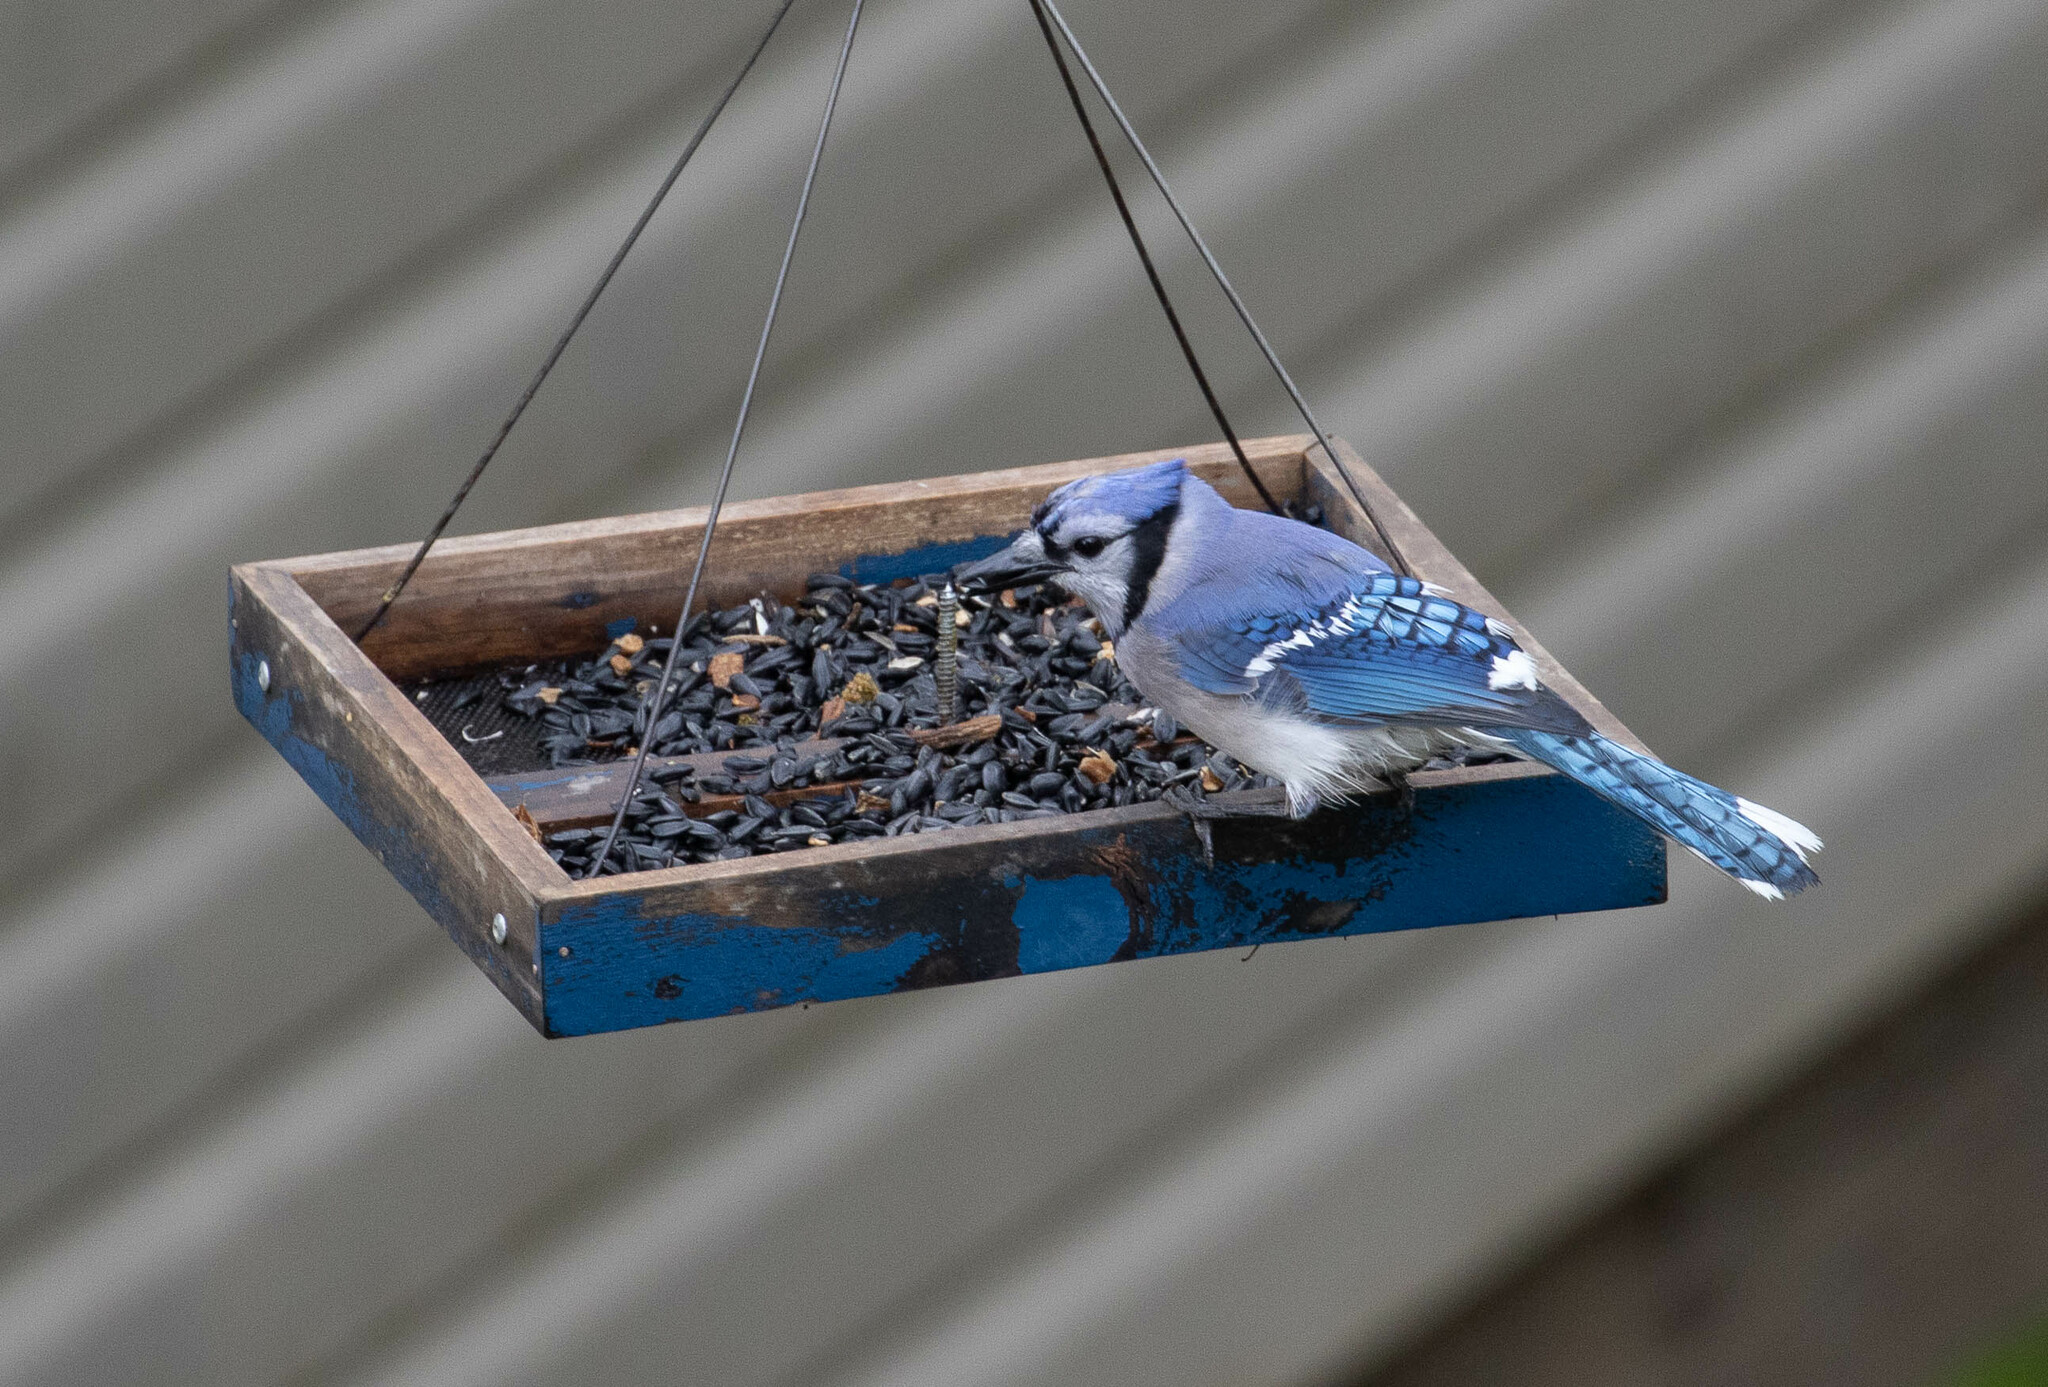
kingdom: Animalia
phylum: Chordata
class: Aves
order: Passeriformes
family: Corvidae
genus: Cyanocitta
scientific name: Cyanocitta cristata
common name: Blue jay
